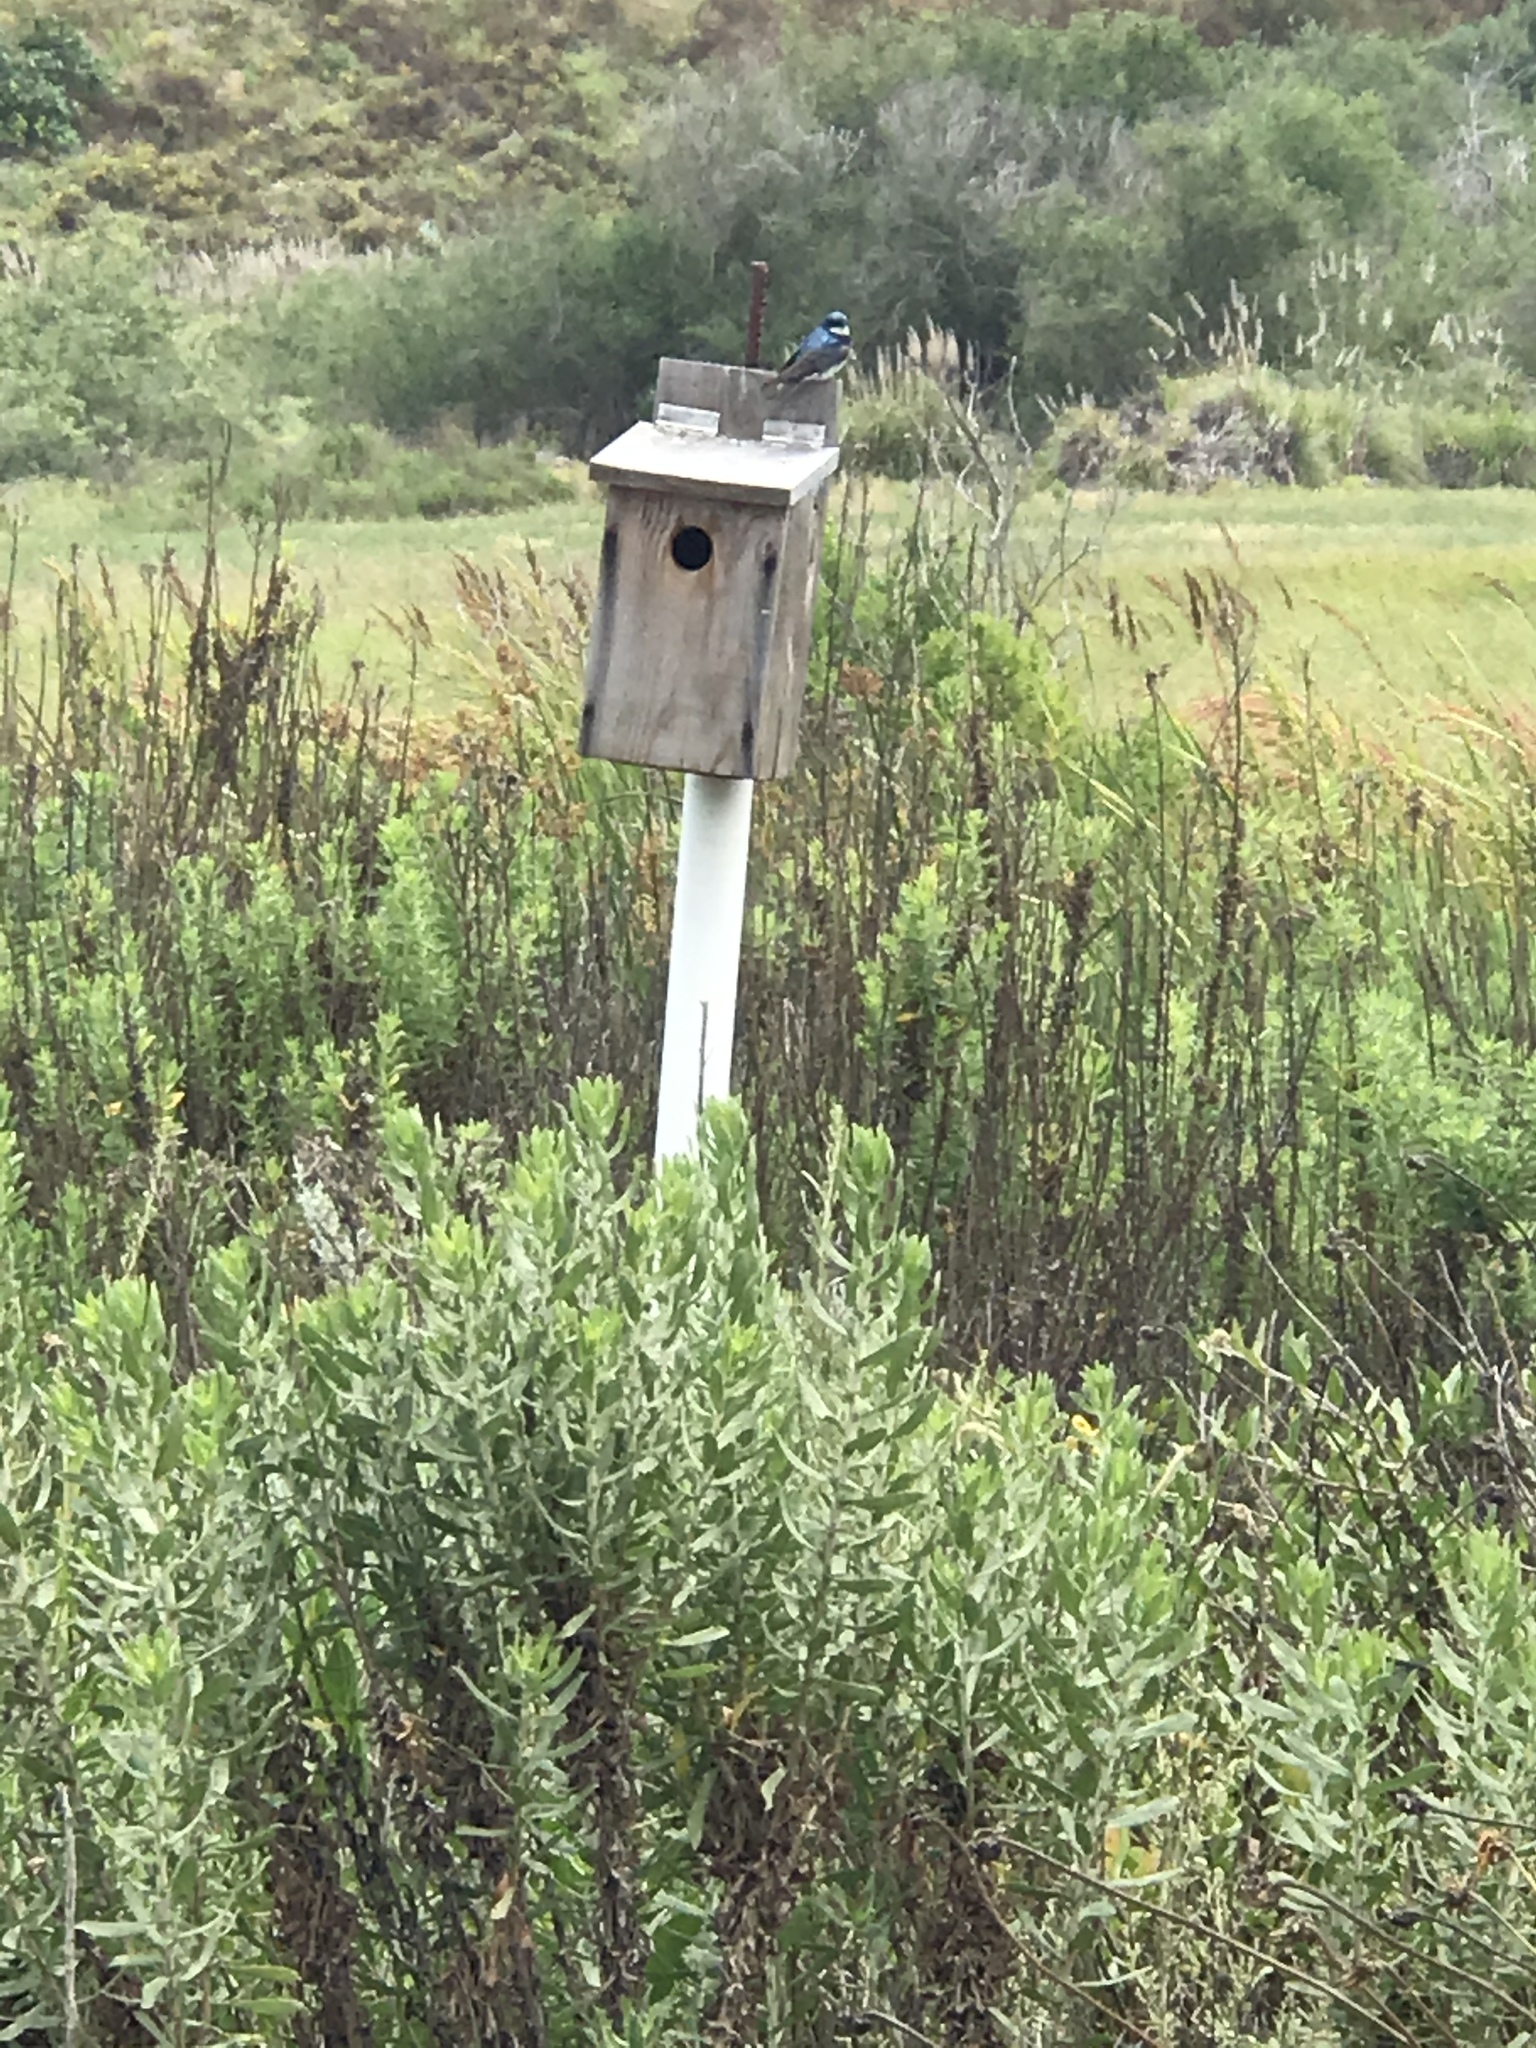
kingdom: Animalia
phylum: Chordata
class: Aves
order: Passeriformes
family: Hirundinidae
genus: Tachycineta
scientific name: Tachycineta bicolor
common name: Tree swallow
